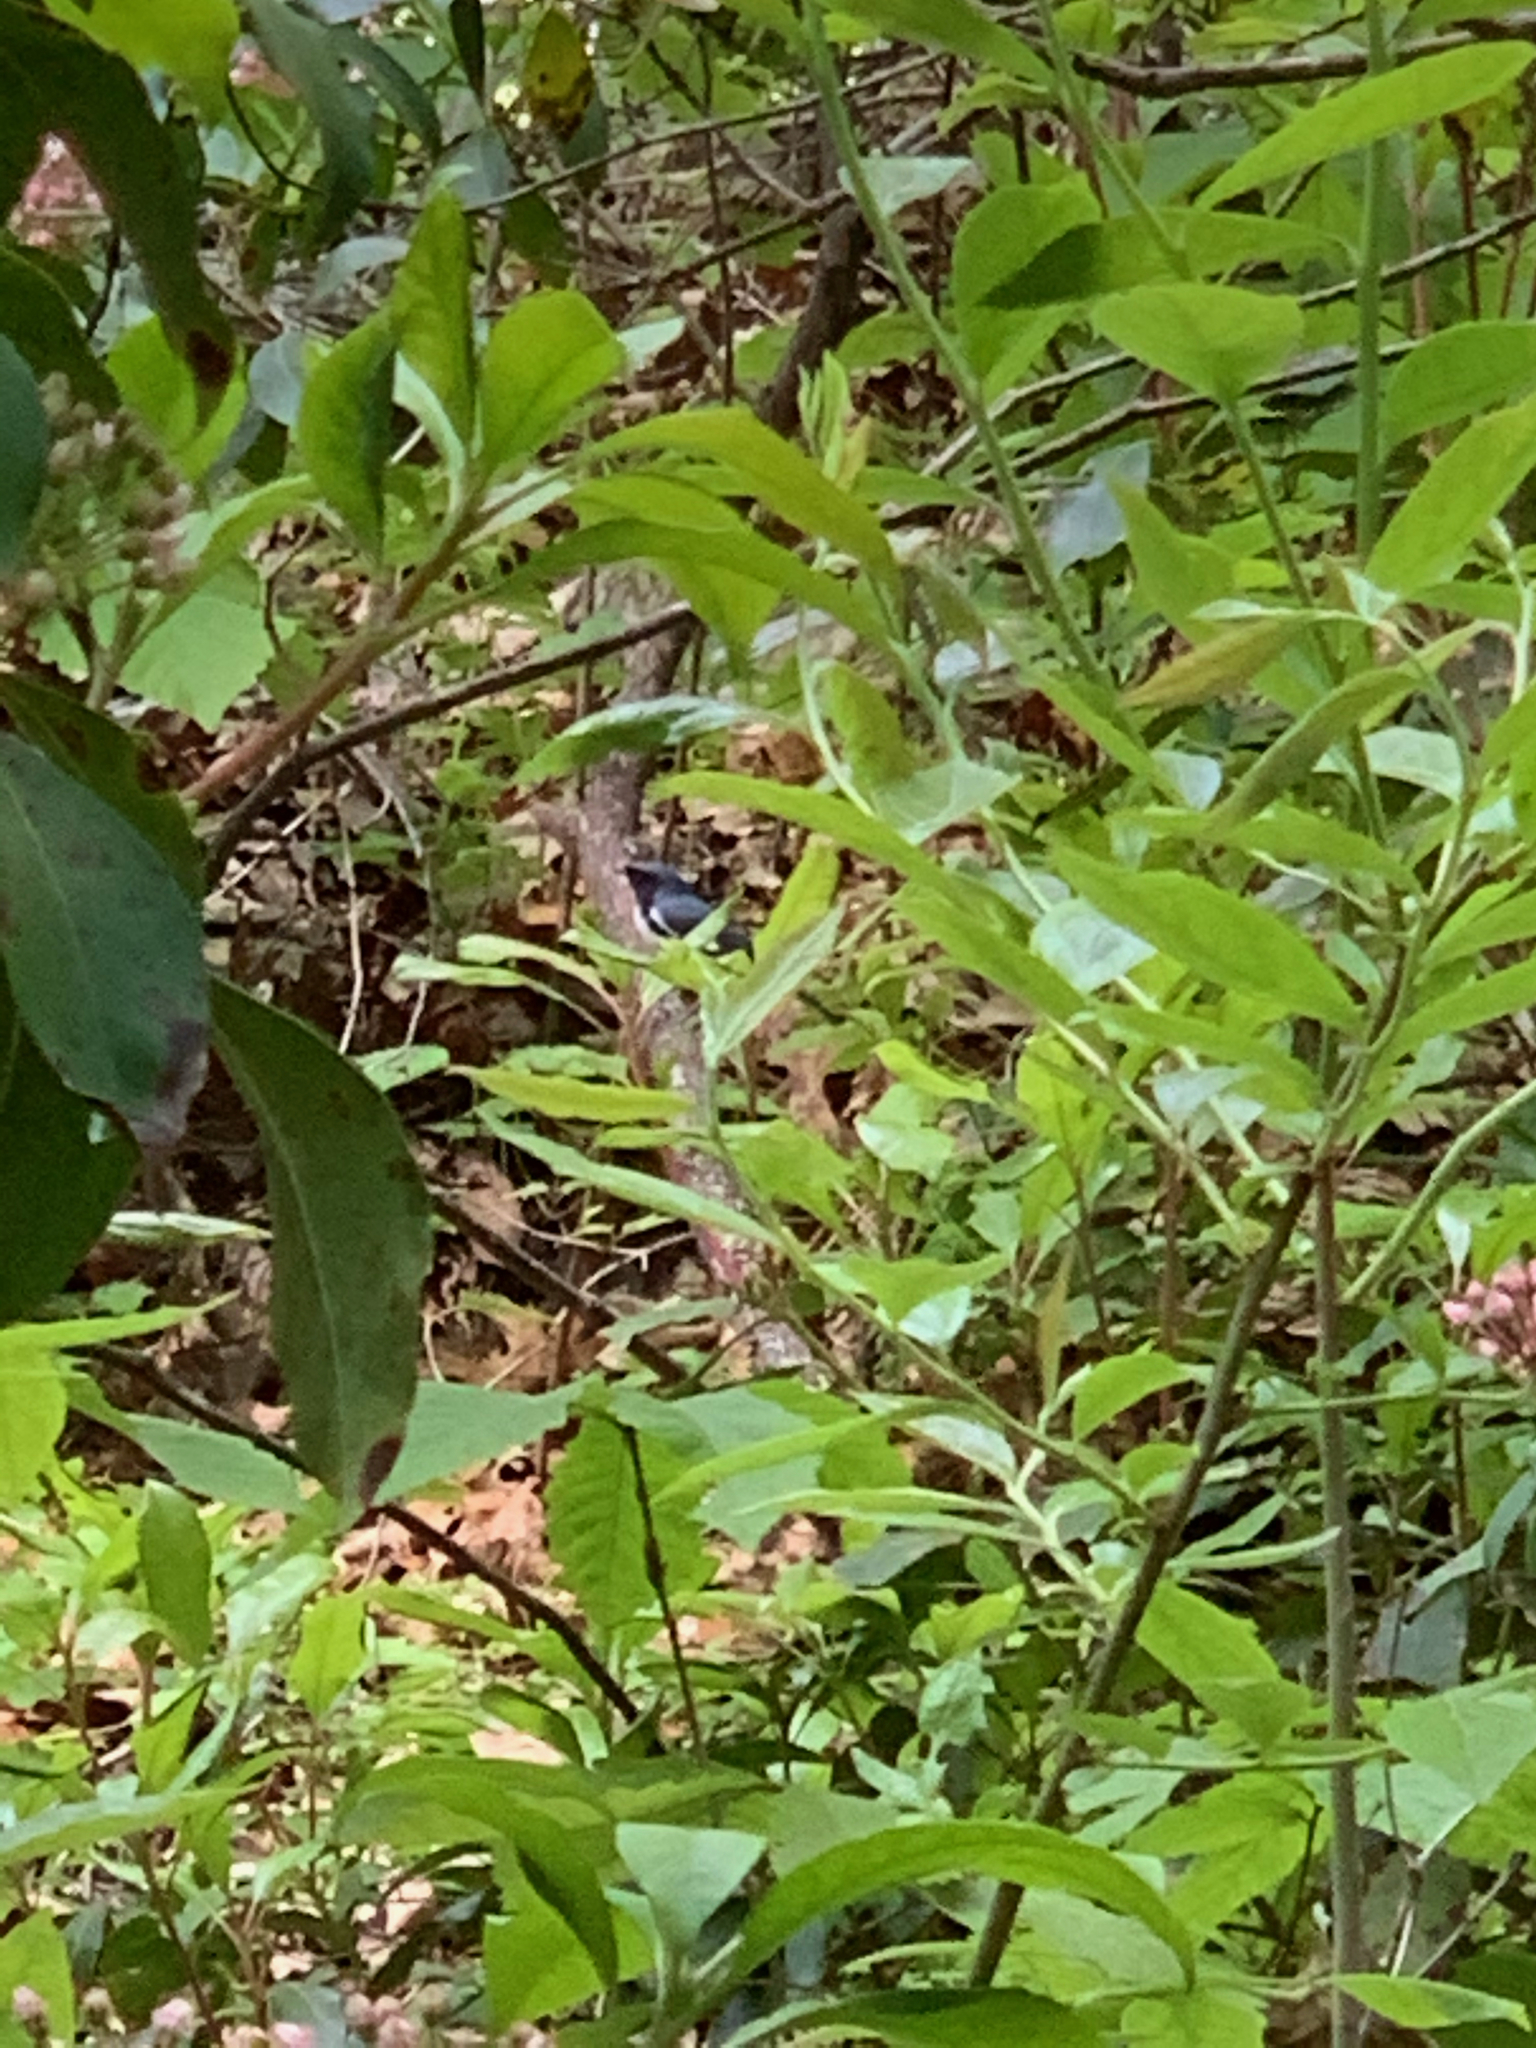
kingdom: Animalia
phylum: Chordata
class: Aves
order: Passeriformes
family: Parulidae
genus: Setophaga
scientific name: Setophaga caerulescens
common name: Black-throated blue warbler
